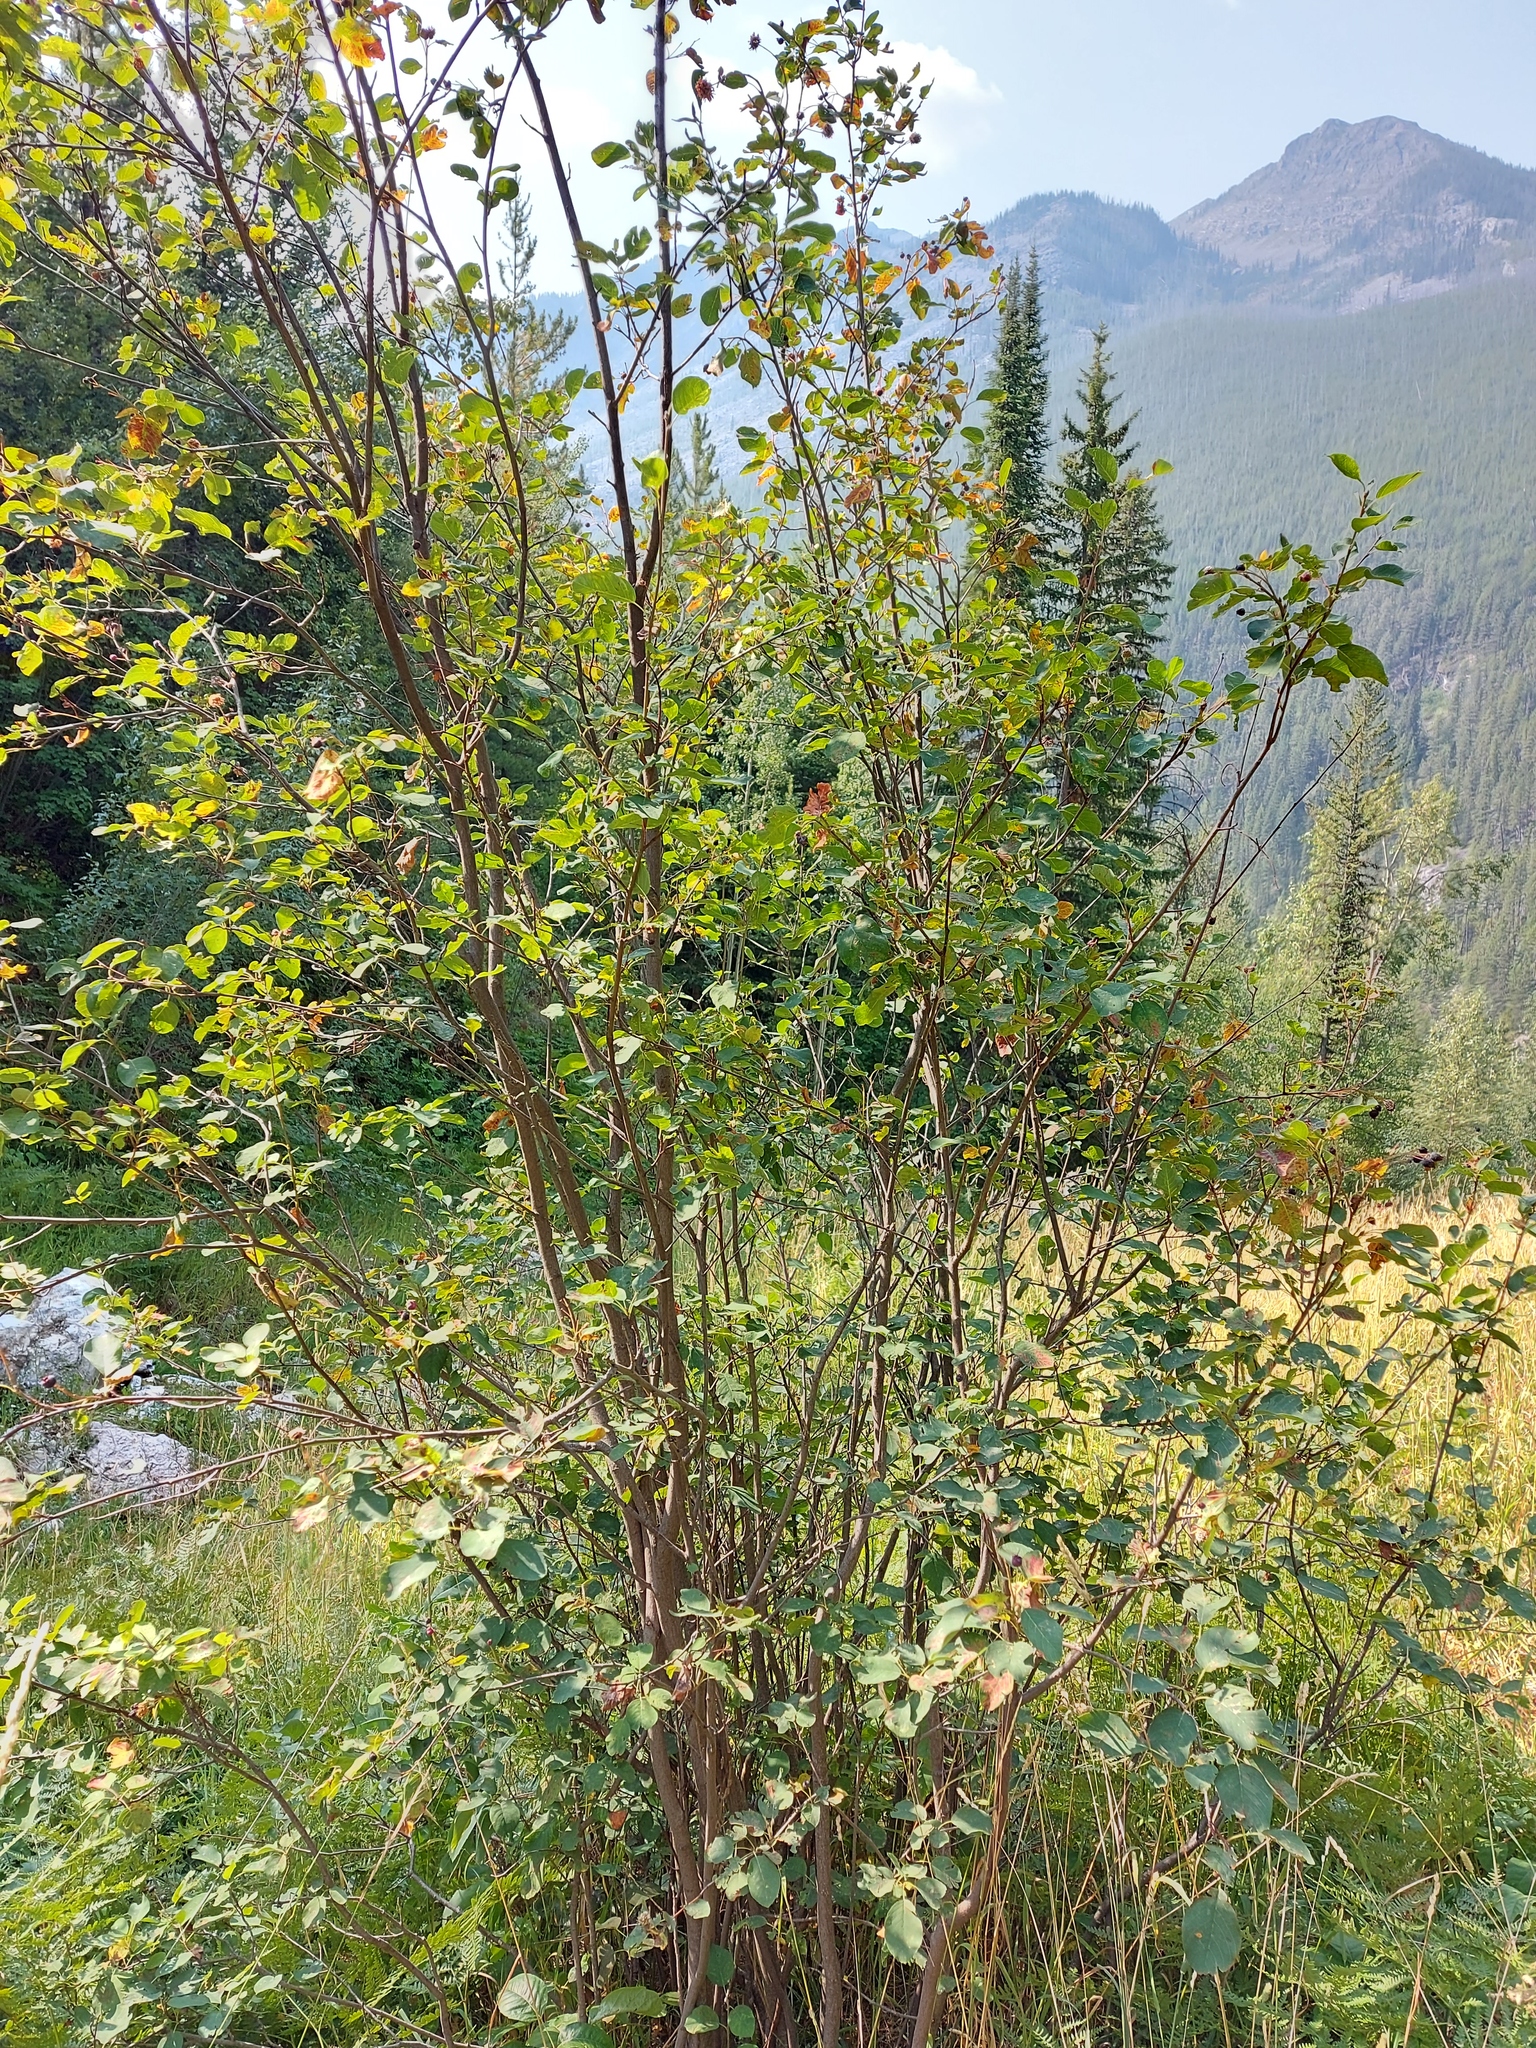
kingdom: Plantae
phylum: Tracheophyta
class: Magnoliopsida
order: Rosales
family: Rosaceae
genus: Amelanchier
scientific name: Amelanchier alnifolia
